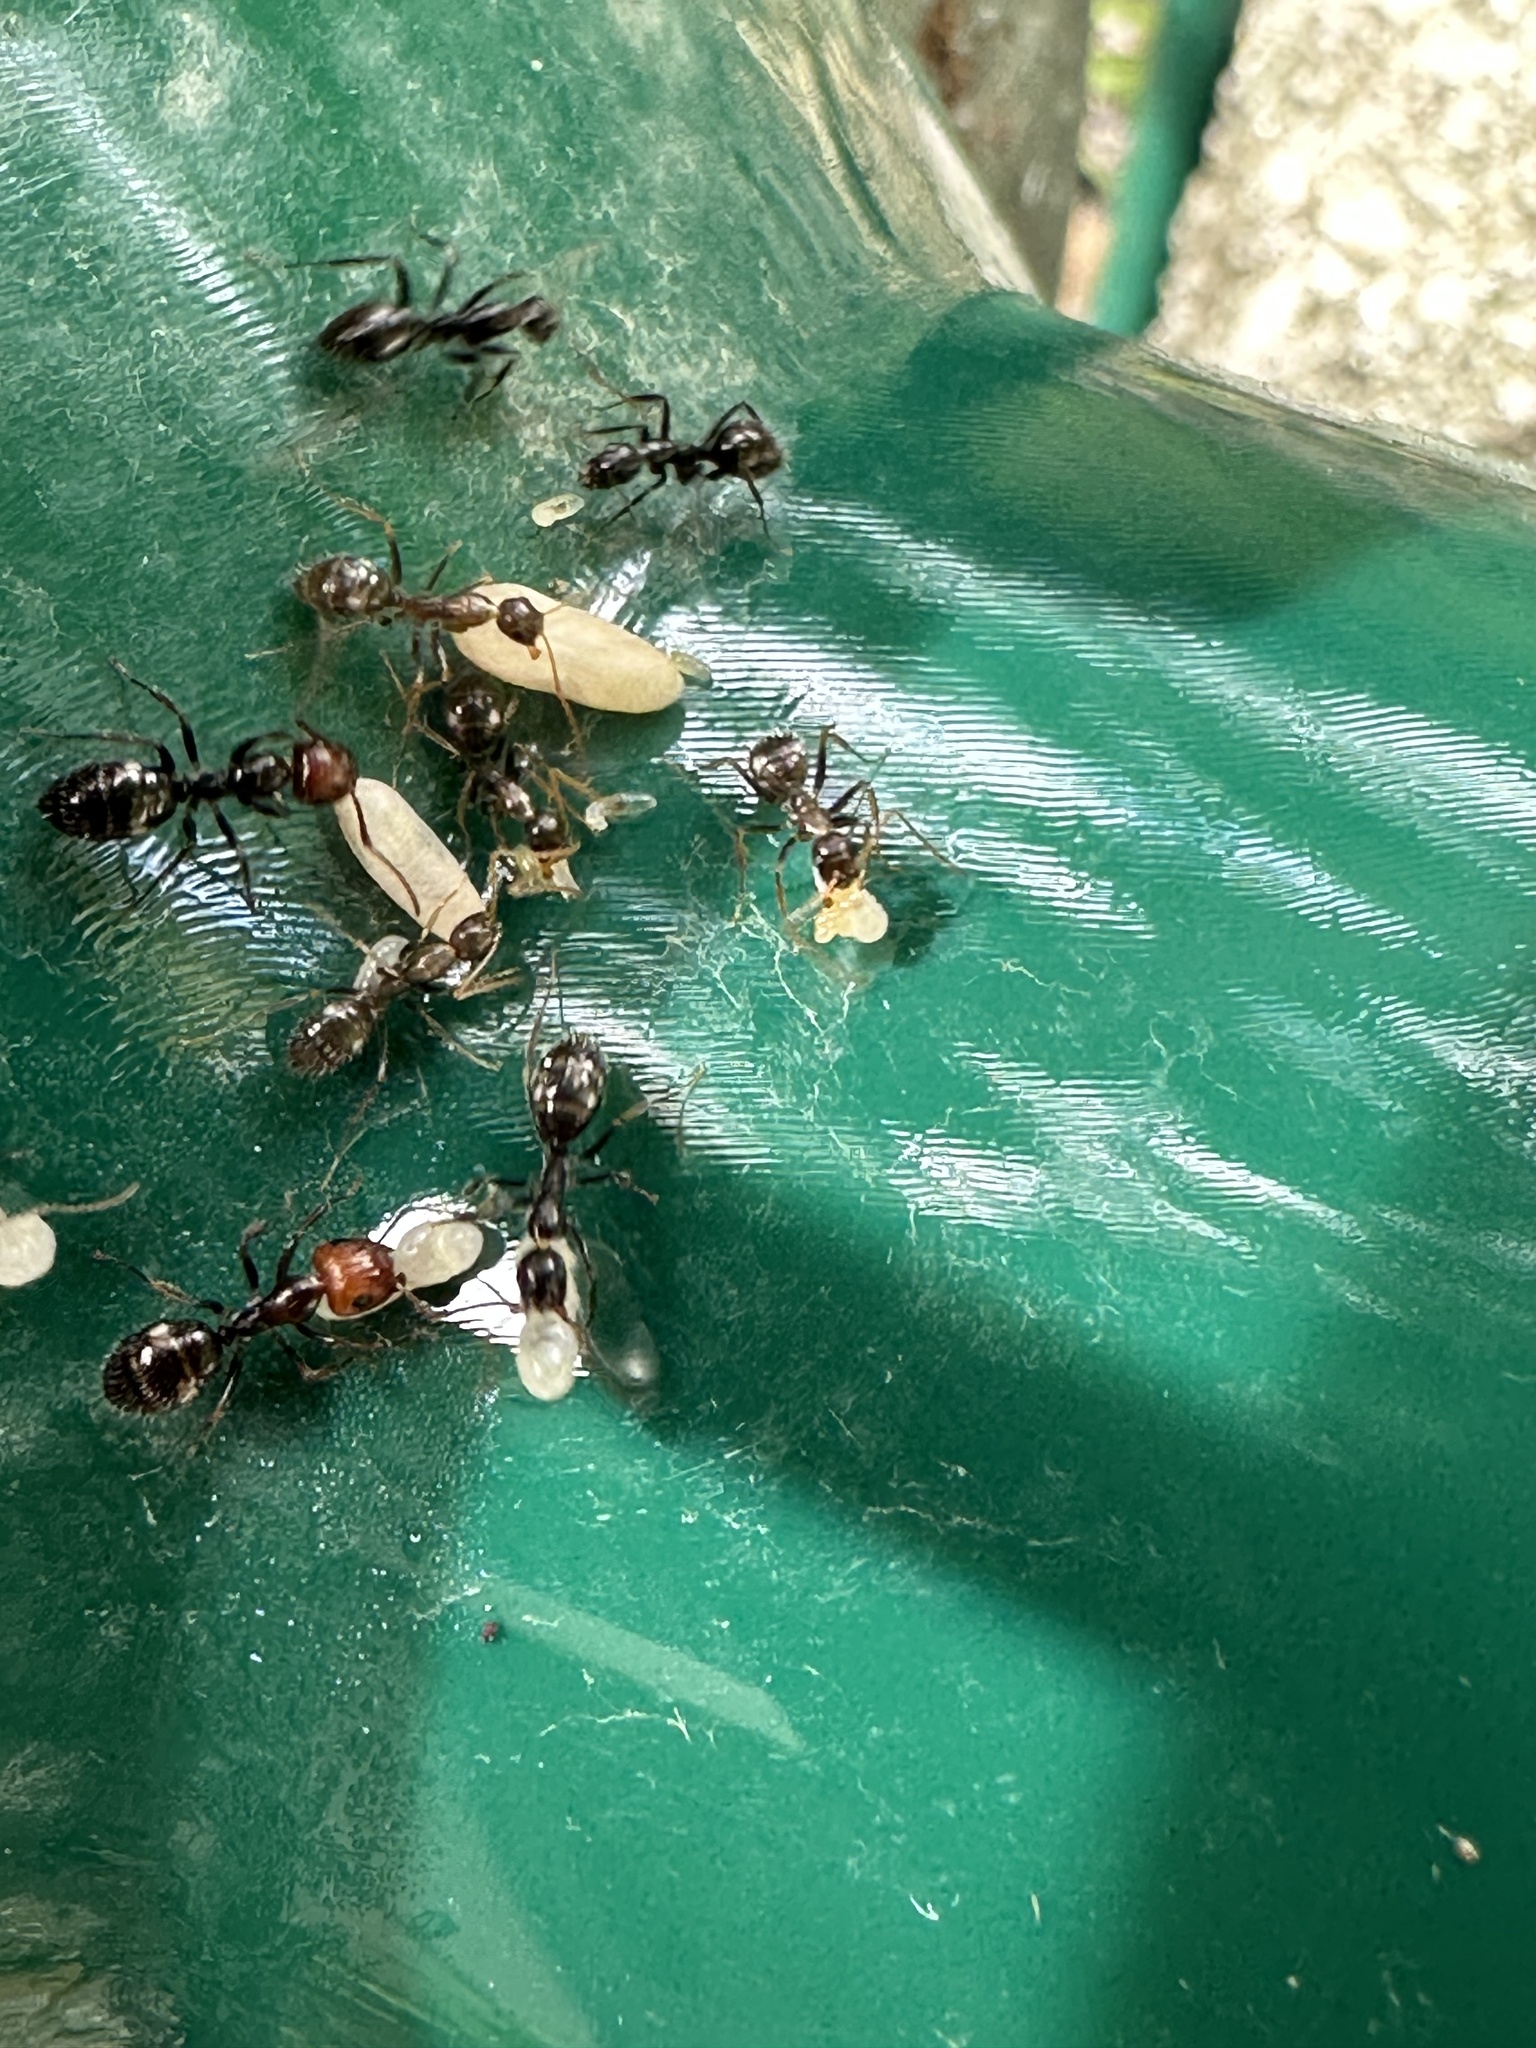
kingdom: Animalia
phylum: Arthropoda
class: Insecta
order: Hymenoptera
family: Formicidae
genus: Camponotus
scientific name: Camponotus sexguttatus
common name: Neotropical carpenter ant
